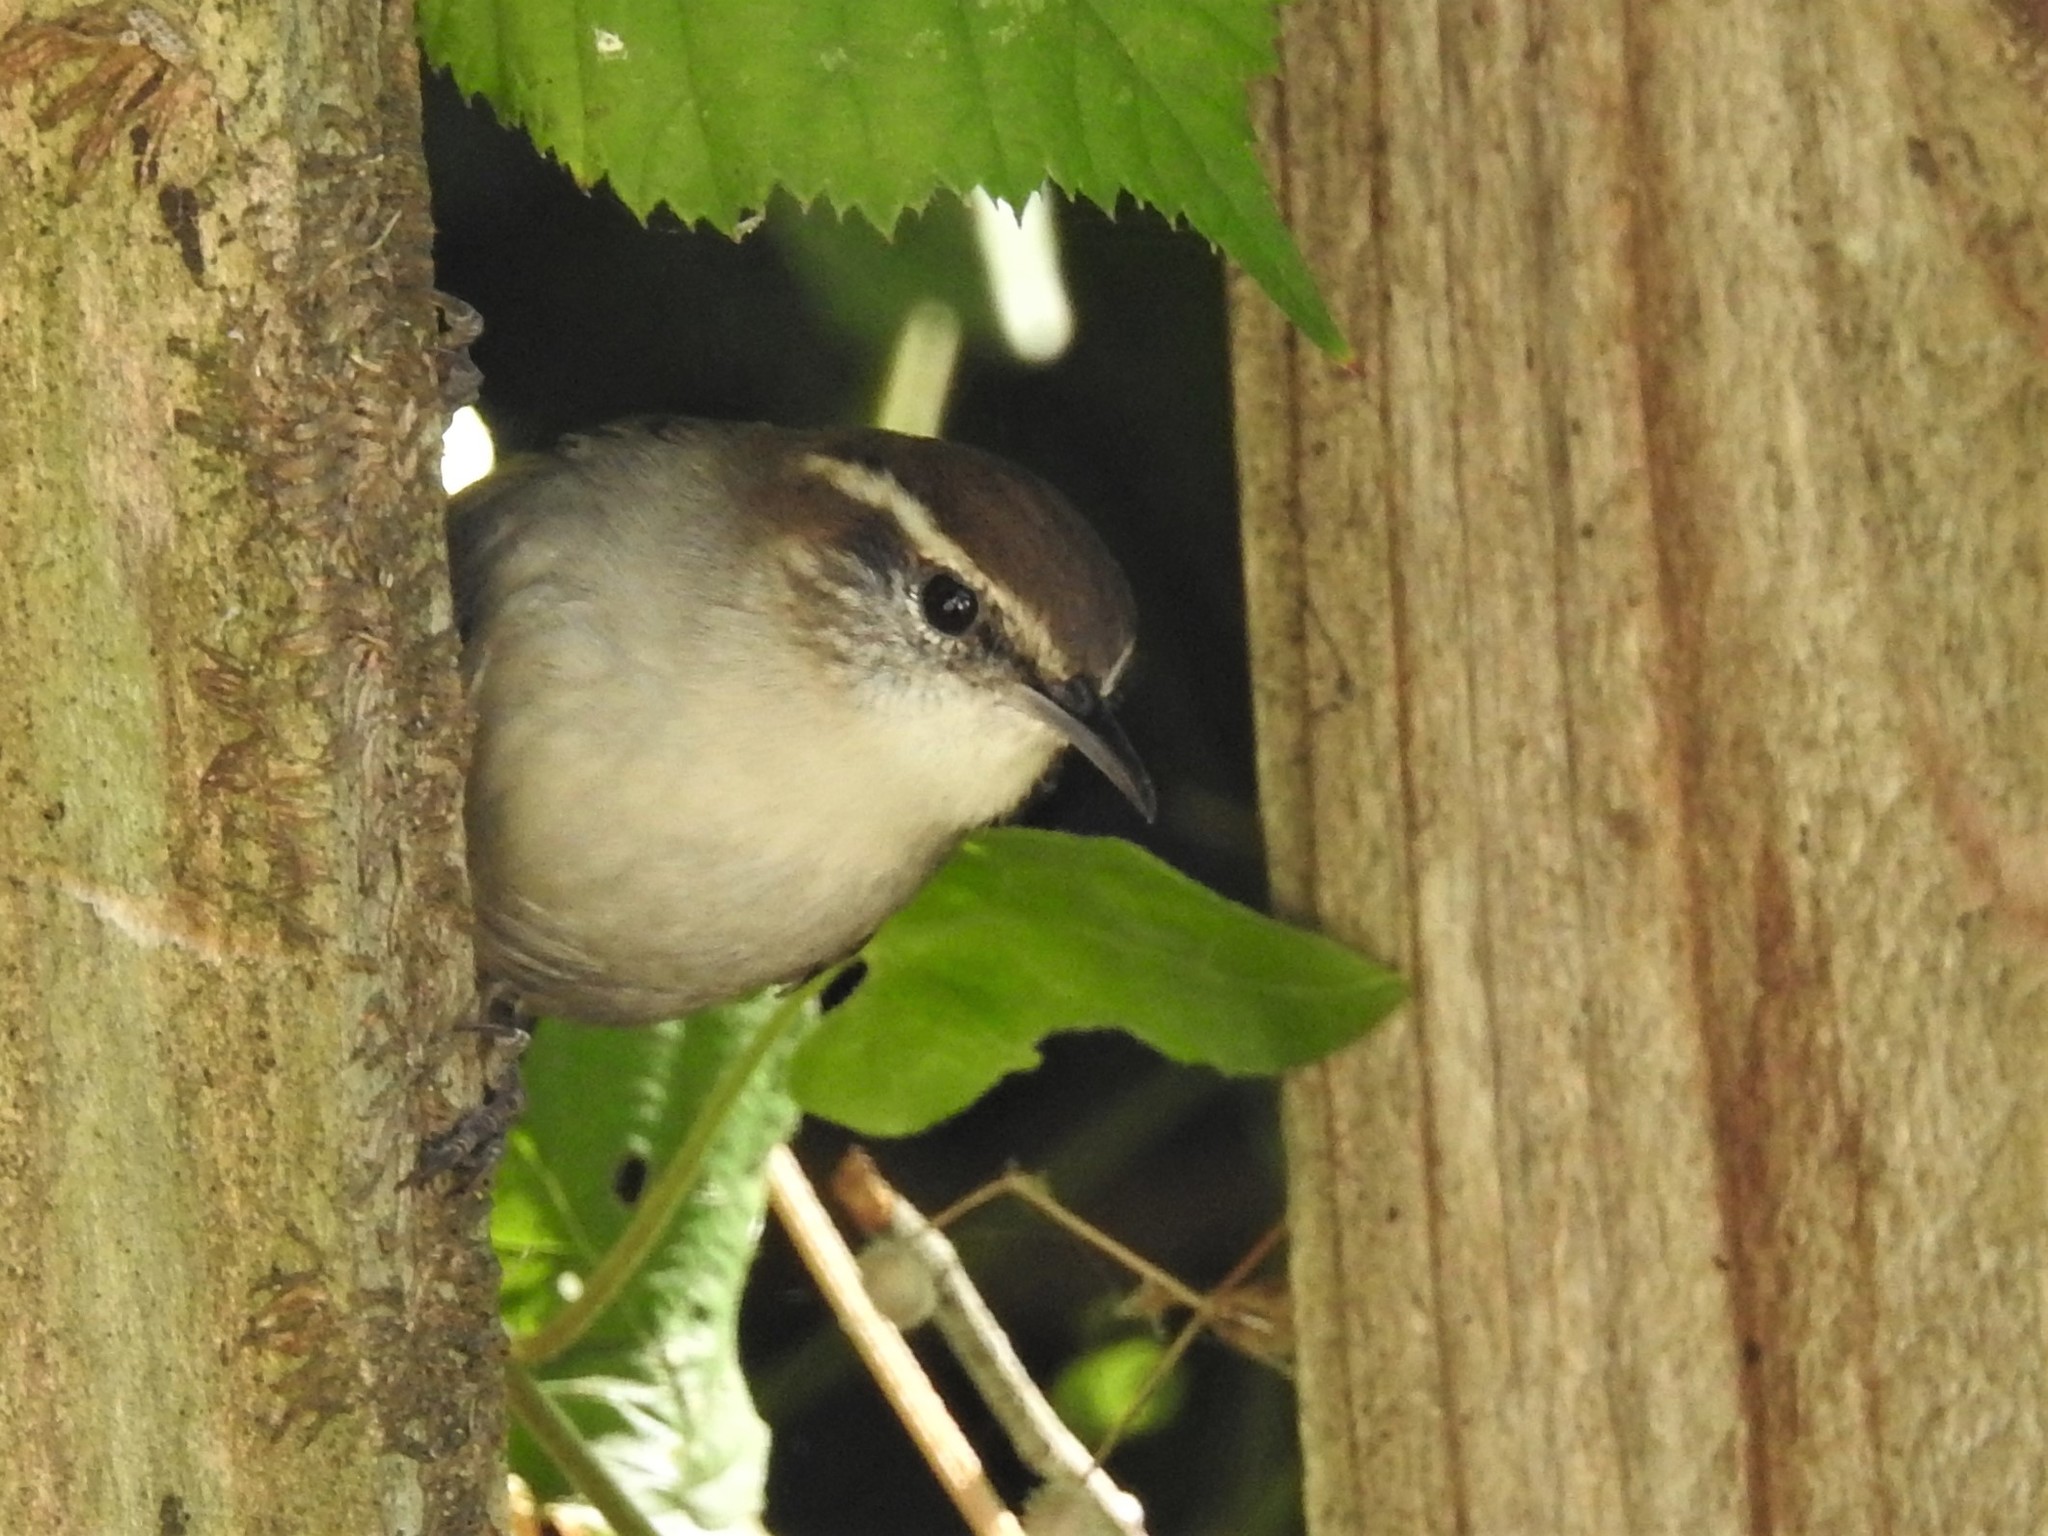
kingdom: Animalia
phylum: Chordata
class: Aves
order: Passeriformes
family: Troglodytidae
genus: Thryomanes
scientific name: Thryomanes bewickii
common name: Bewick's wren
